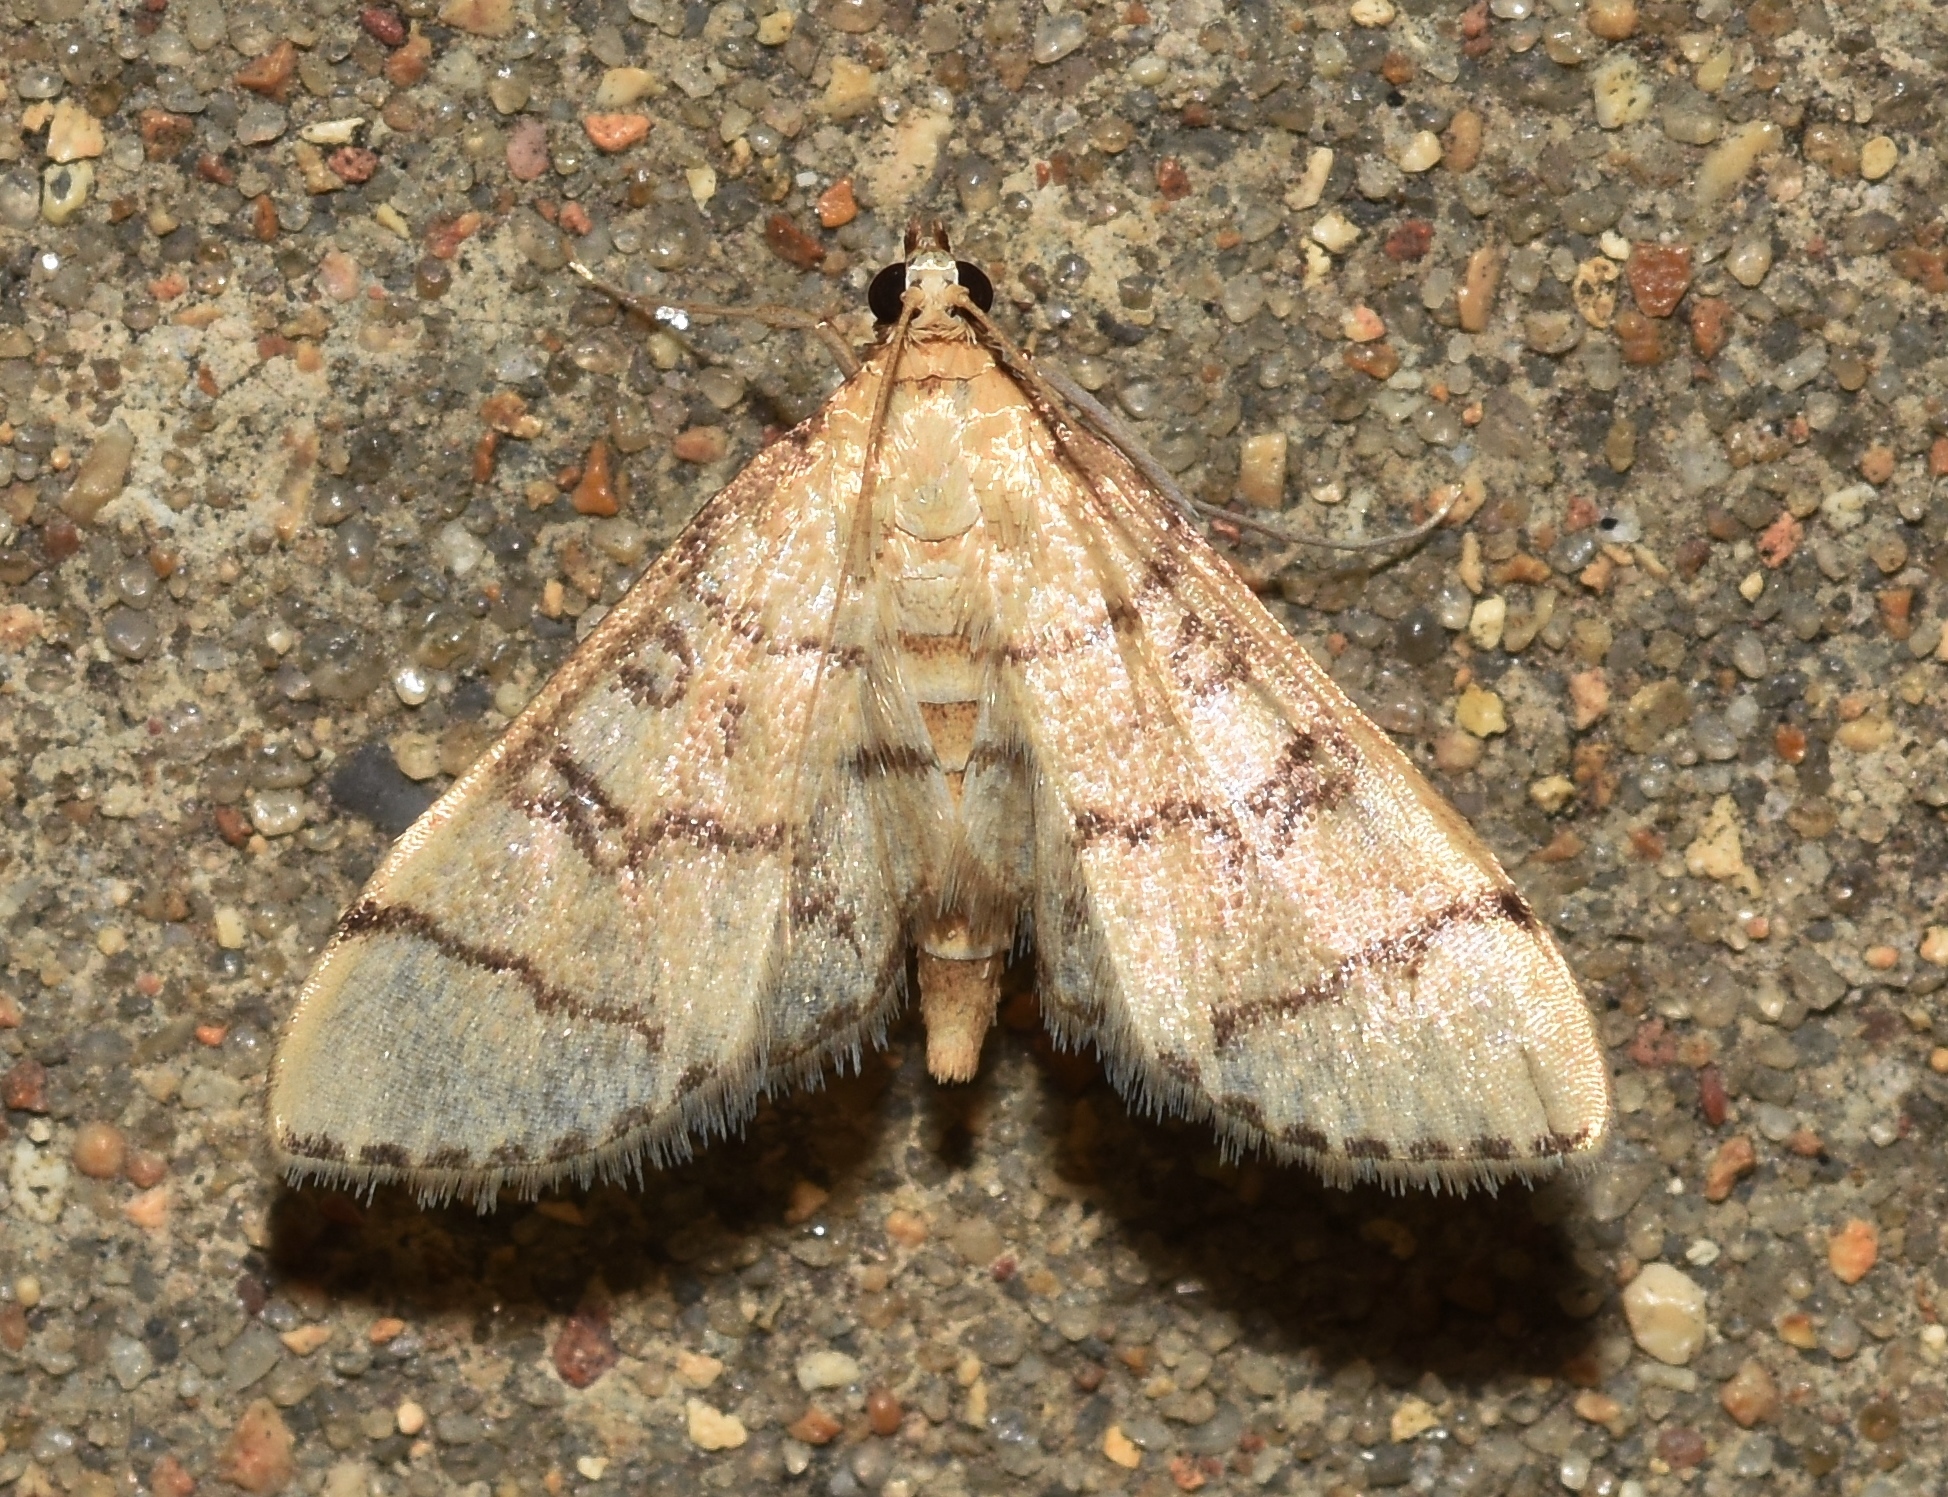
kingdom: Animalia
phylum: Arthropoda
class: Insecta
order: Lepidoptera
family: Crambidae
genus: Lamprosema
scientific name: Lamprosema Blepharomastix ranalis
